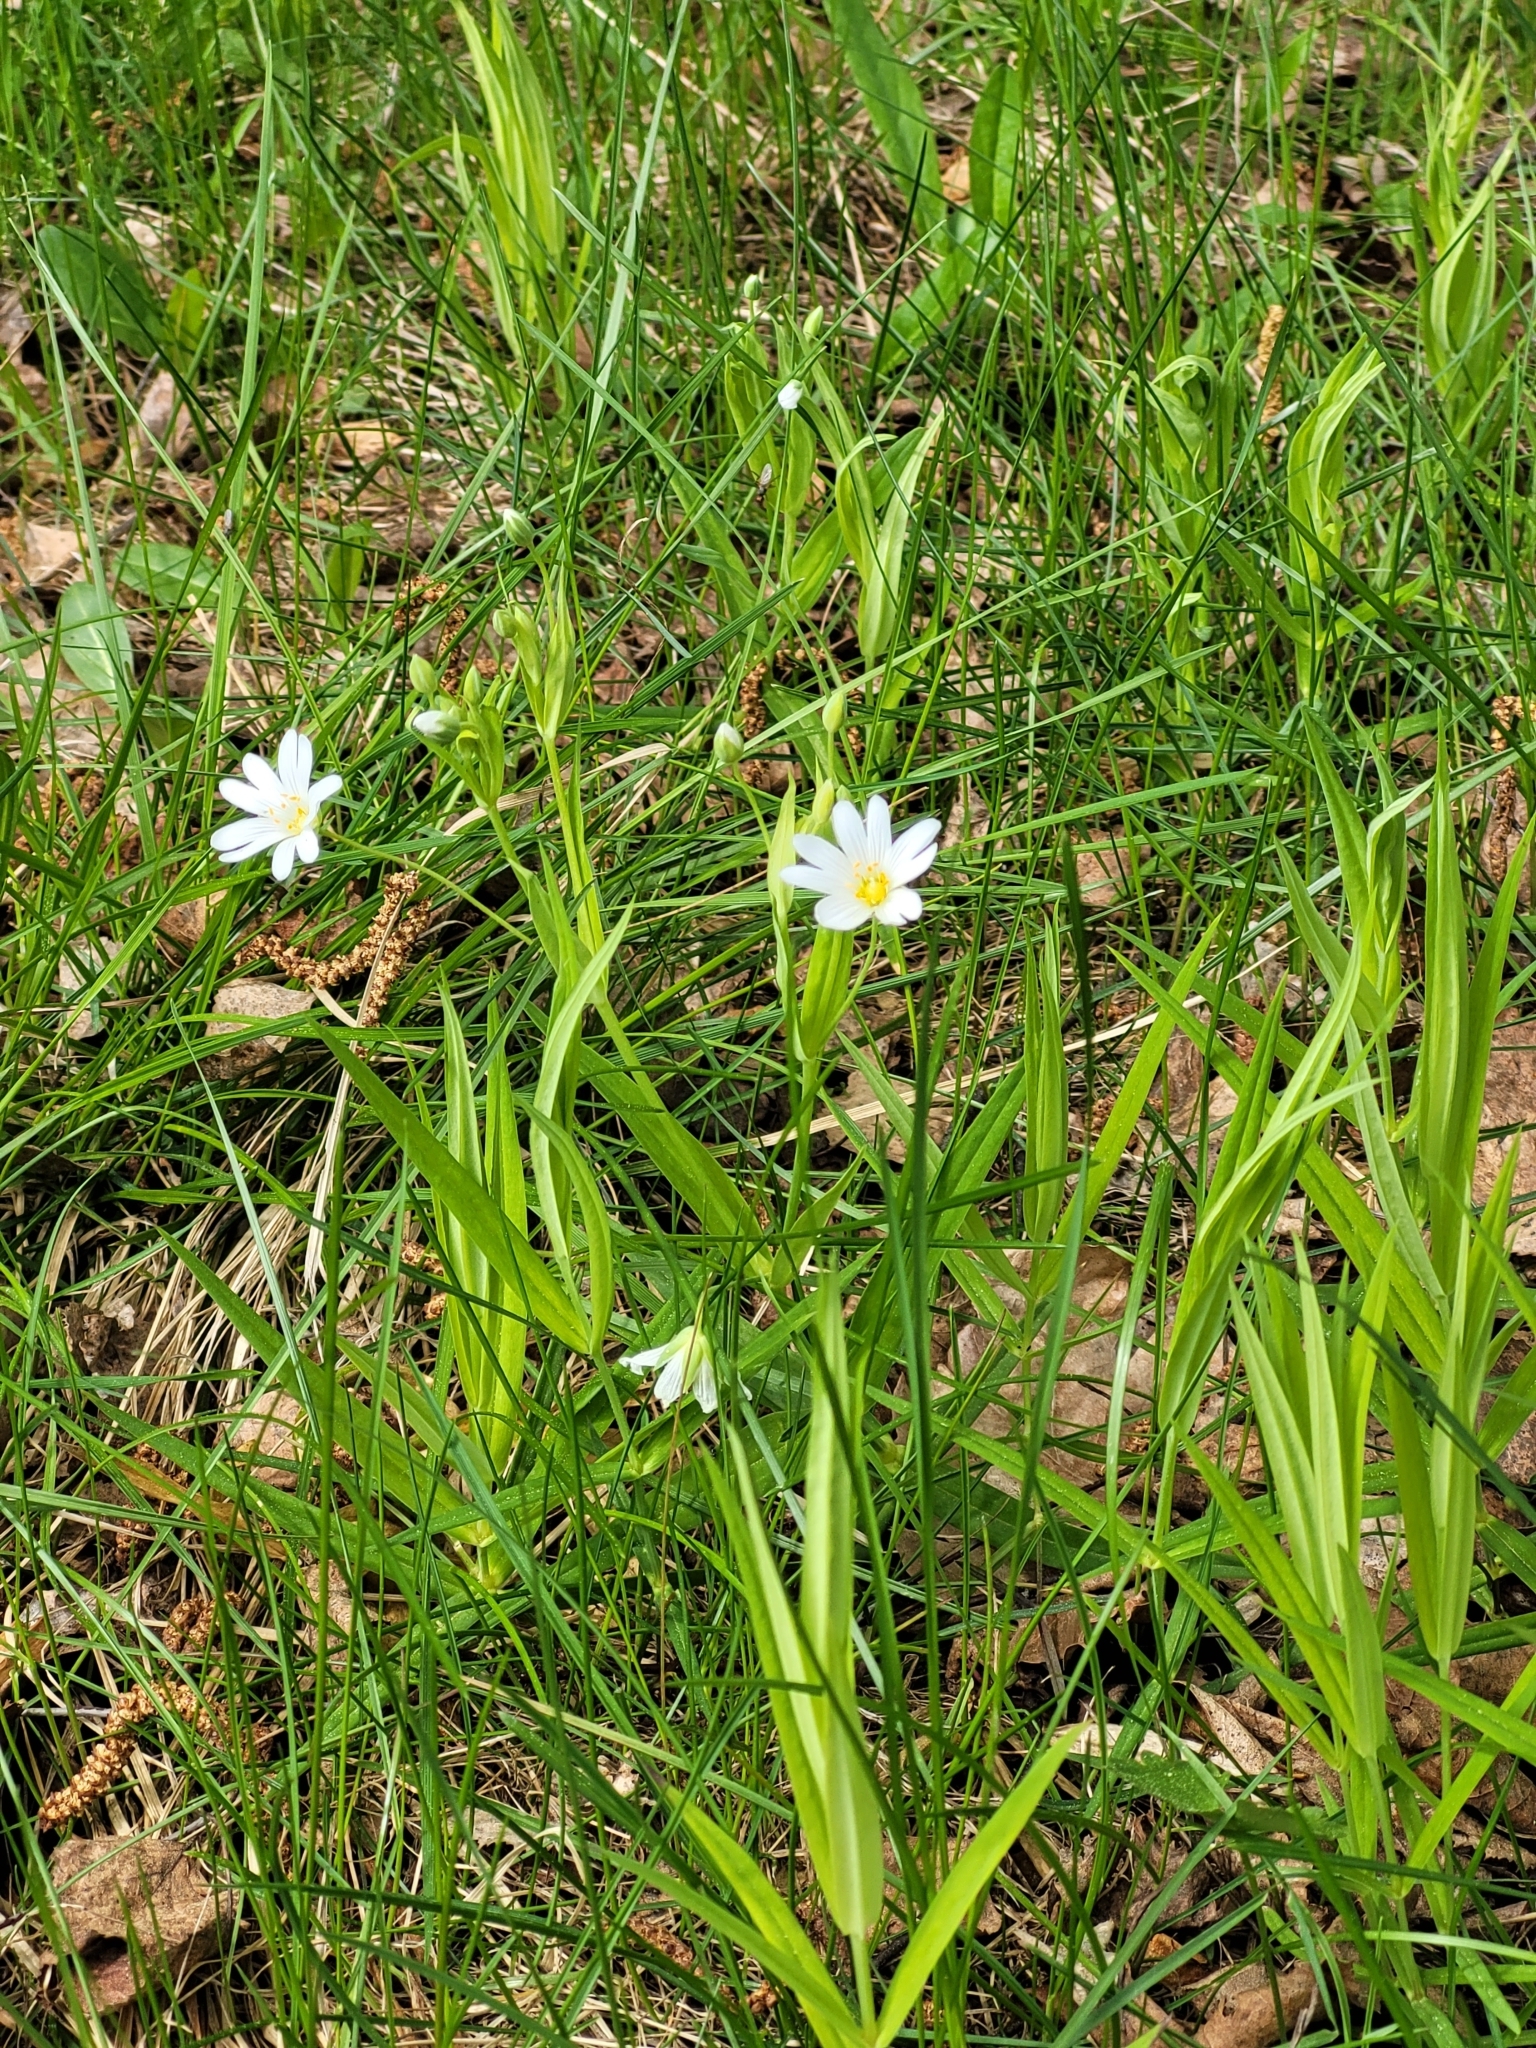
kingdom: Plantae
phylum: Tracheophyta
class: Magnoliopsida
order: Caryophyllales
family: Caryophyllaceae
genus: Rabelera
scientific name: Rabelera holostea
